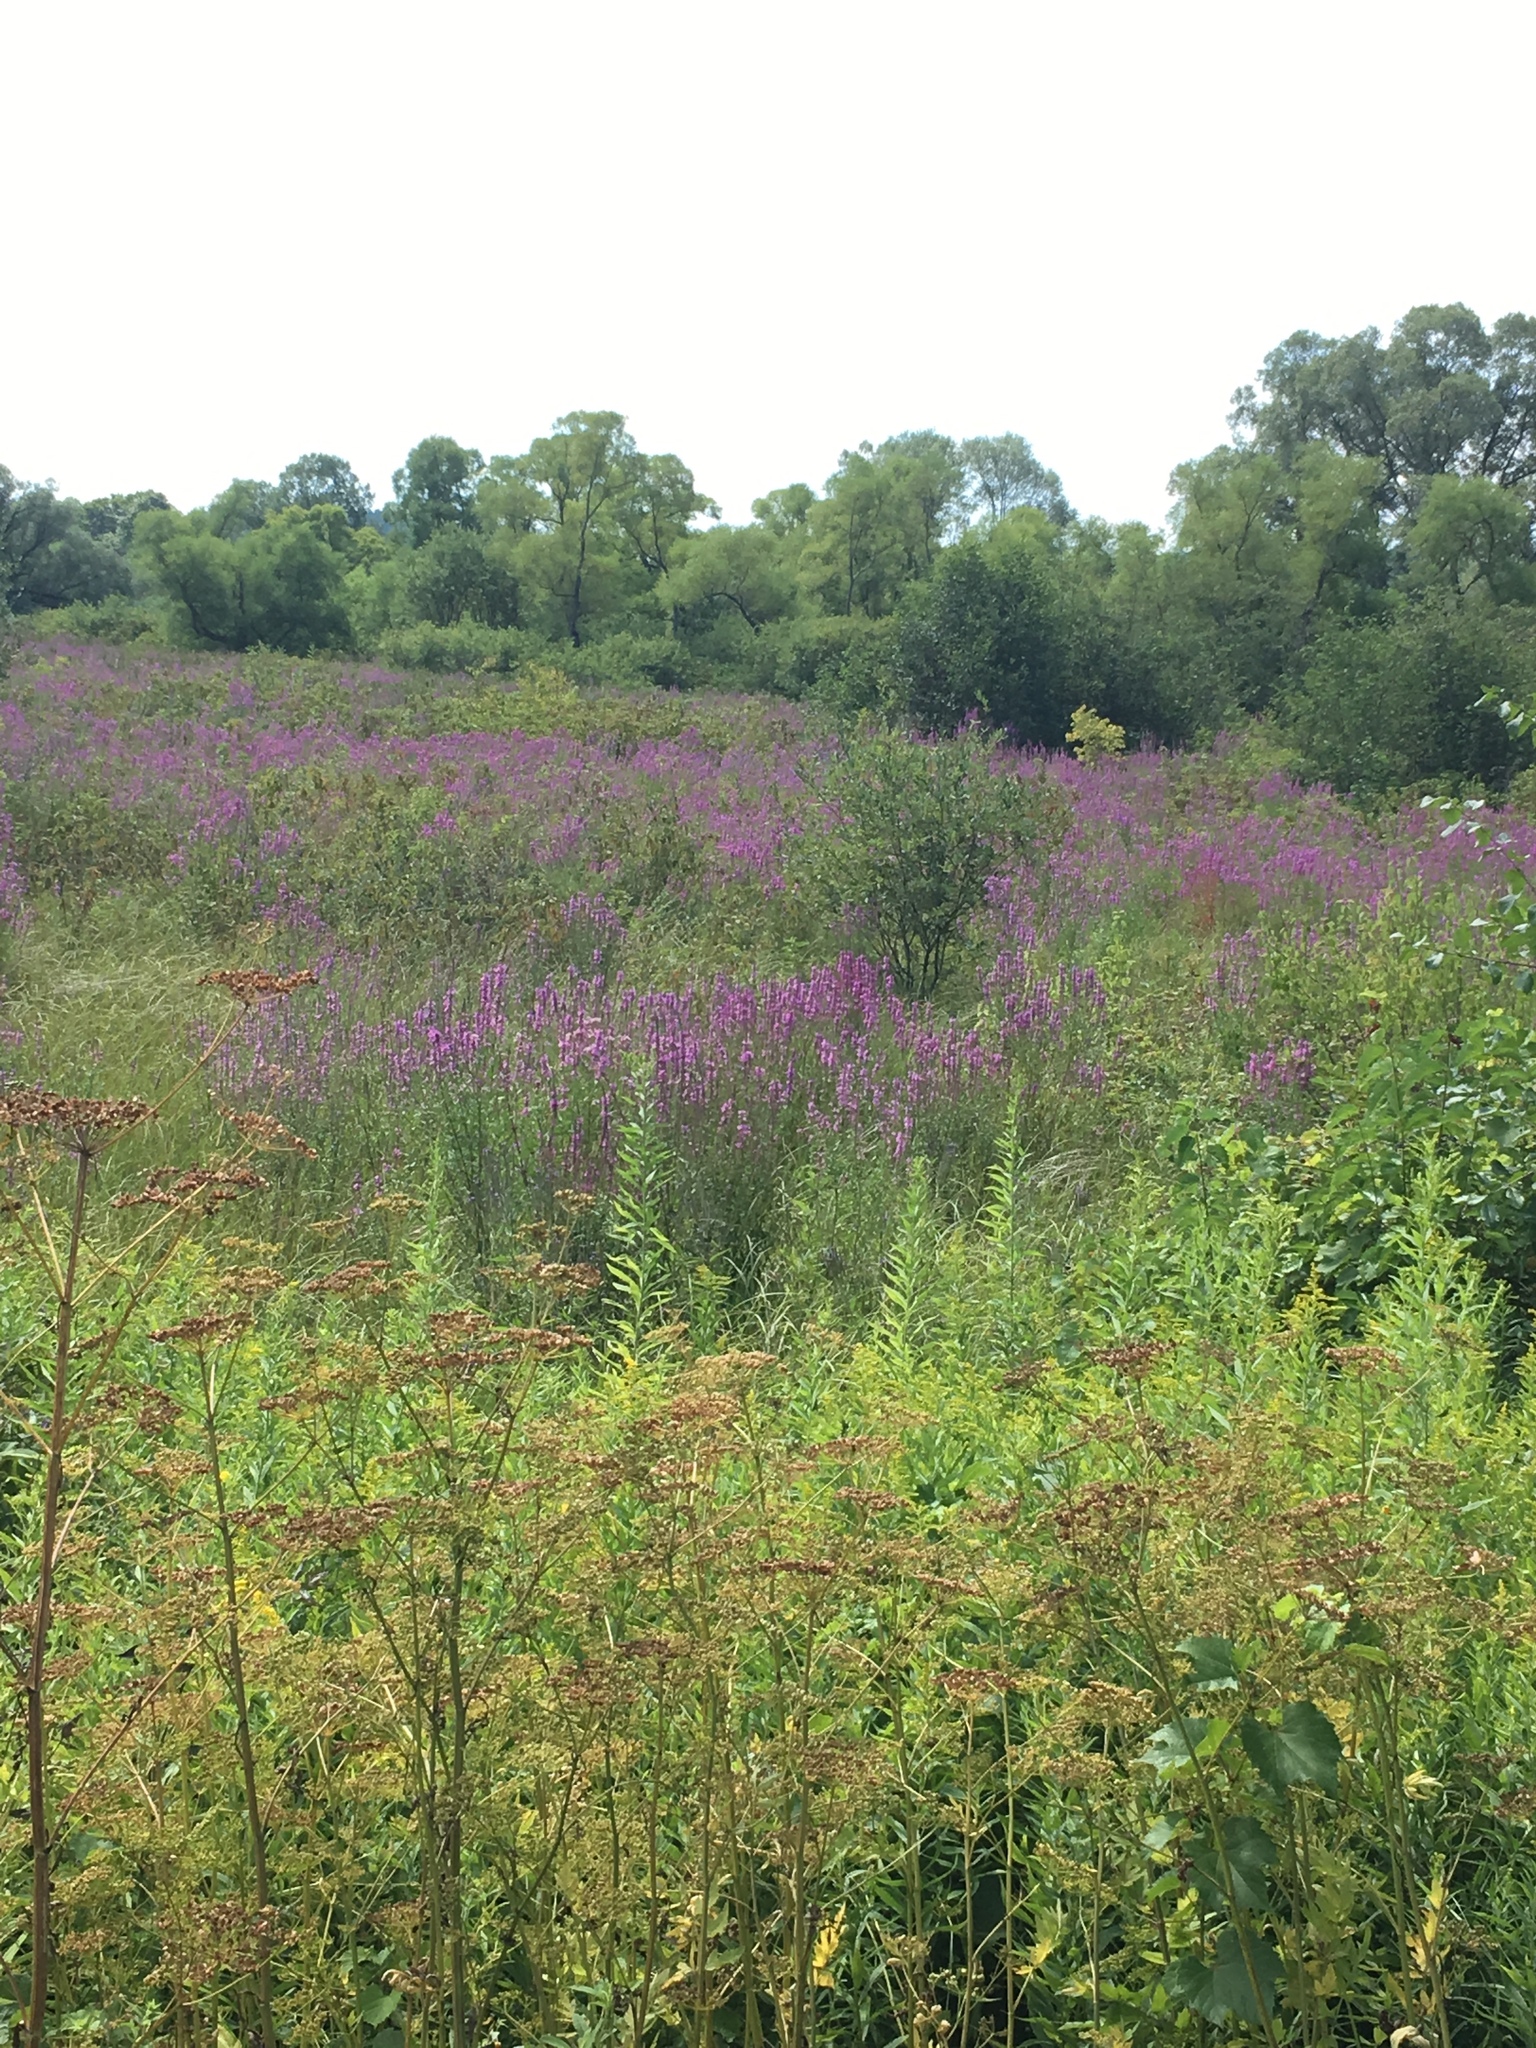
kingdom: Plantae
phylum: Tracheophyta
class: Magnoliopsida
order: Myrtales
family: Lythraceae
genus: Lythrum
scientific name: Lythrum salicaria
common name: Purple loosestrife
